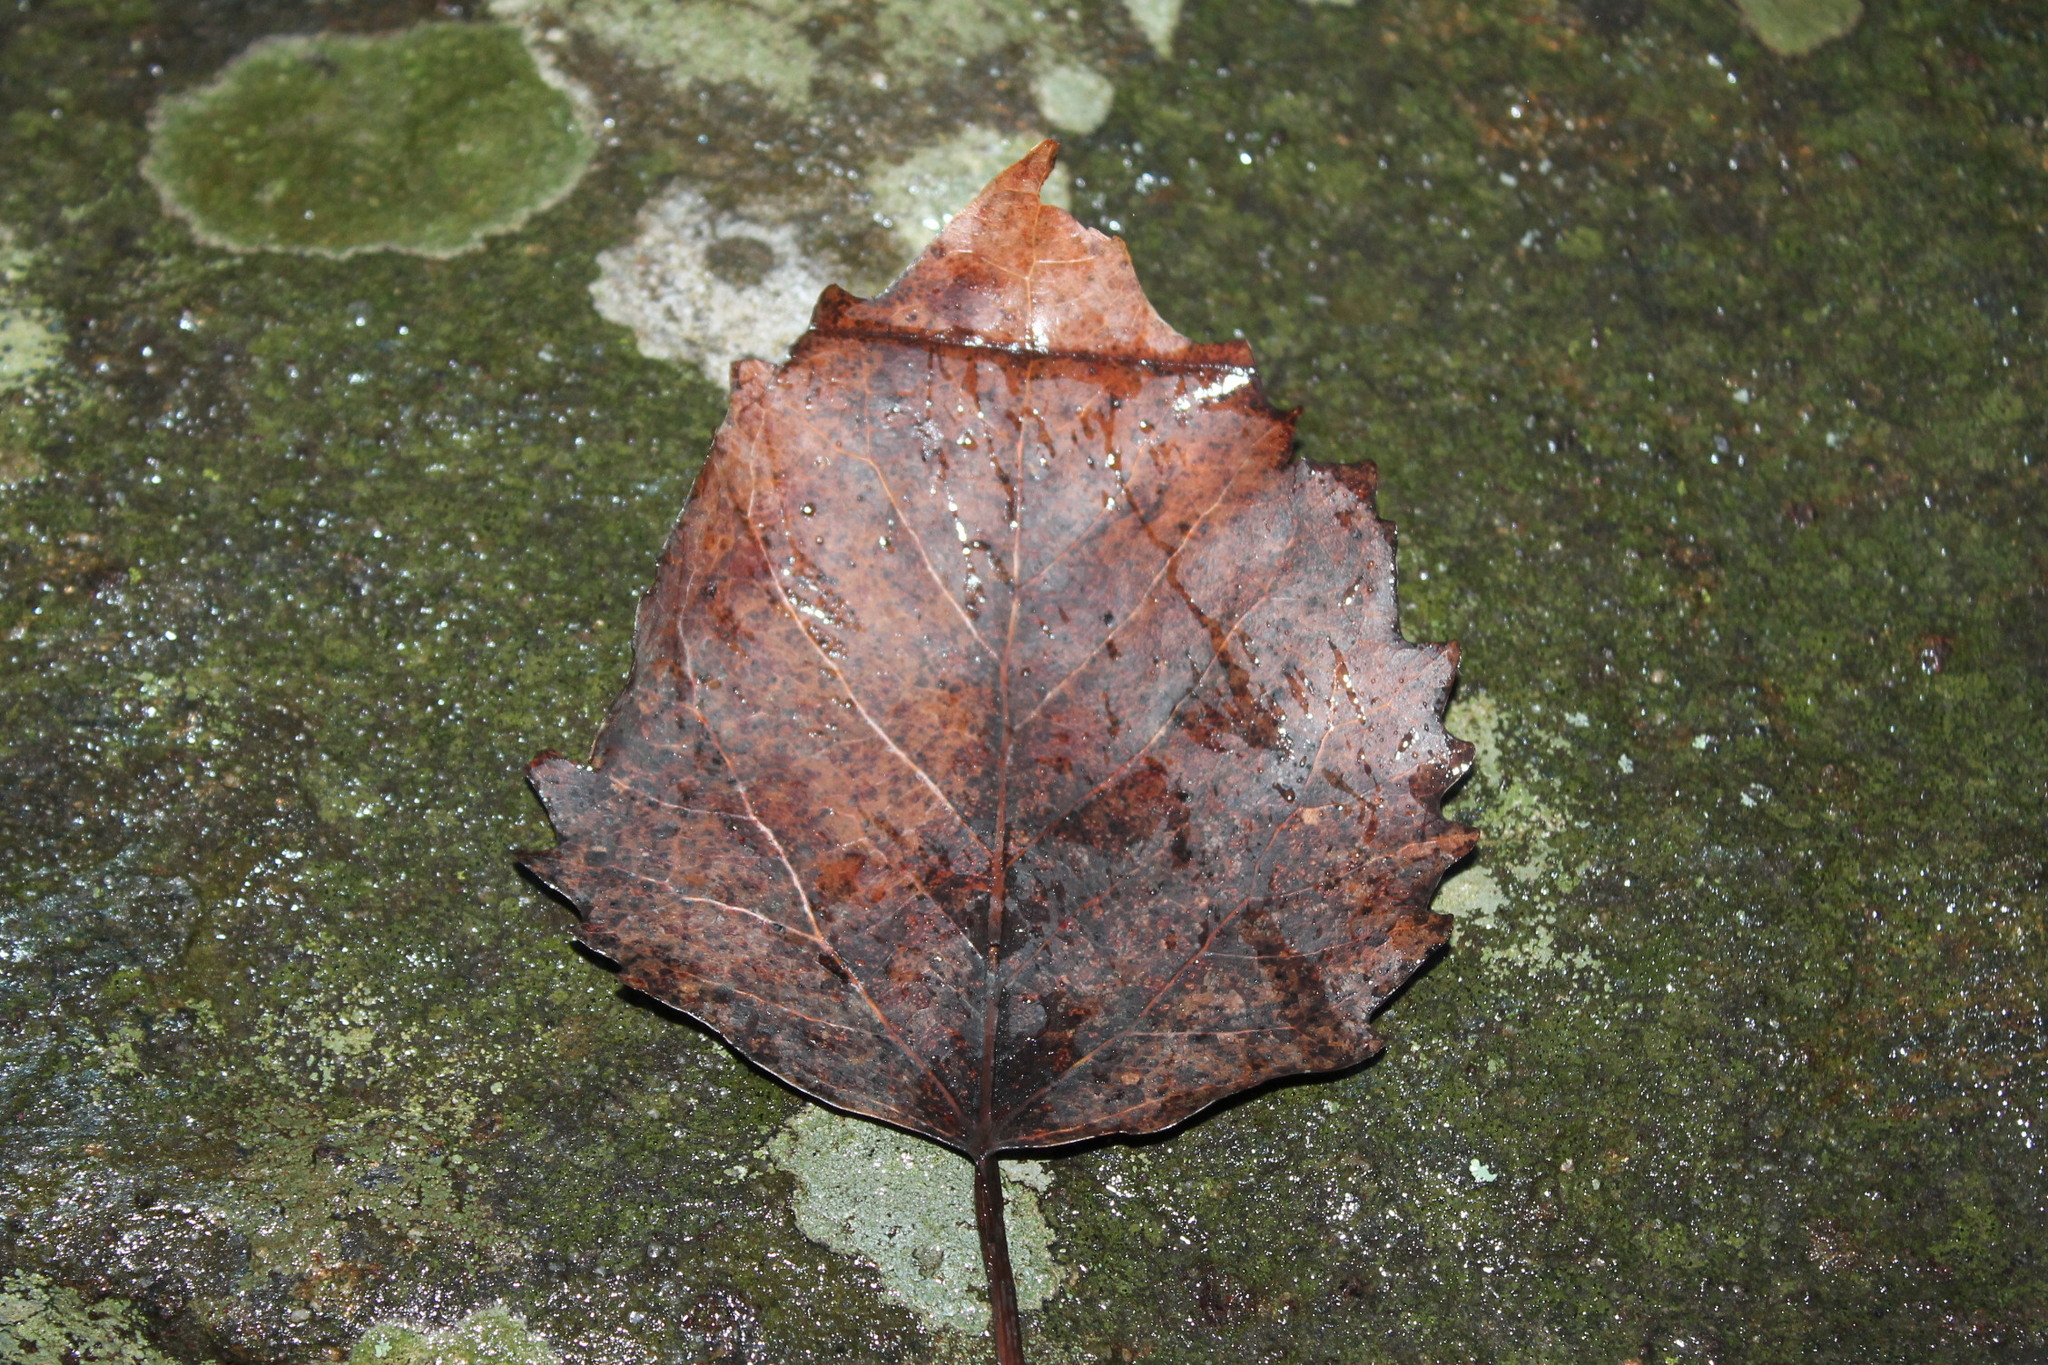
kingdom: Plantae
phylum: Tracheophyta
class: Magnoliopsida
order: Malpighiales
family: Salicaceae
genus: Populus
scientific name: Populus grandidentata
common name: Bigtooth aspen
